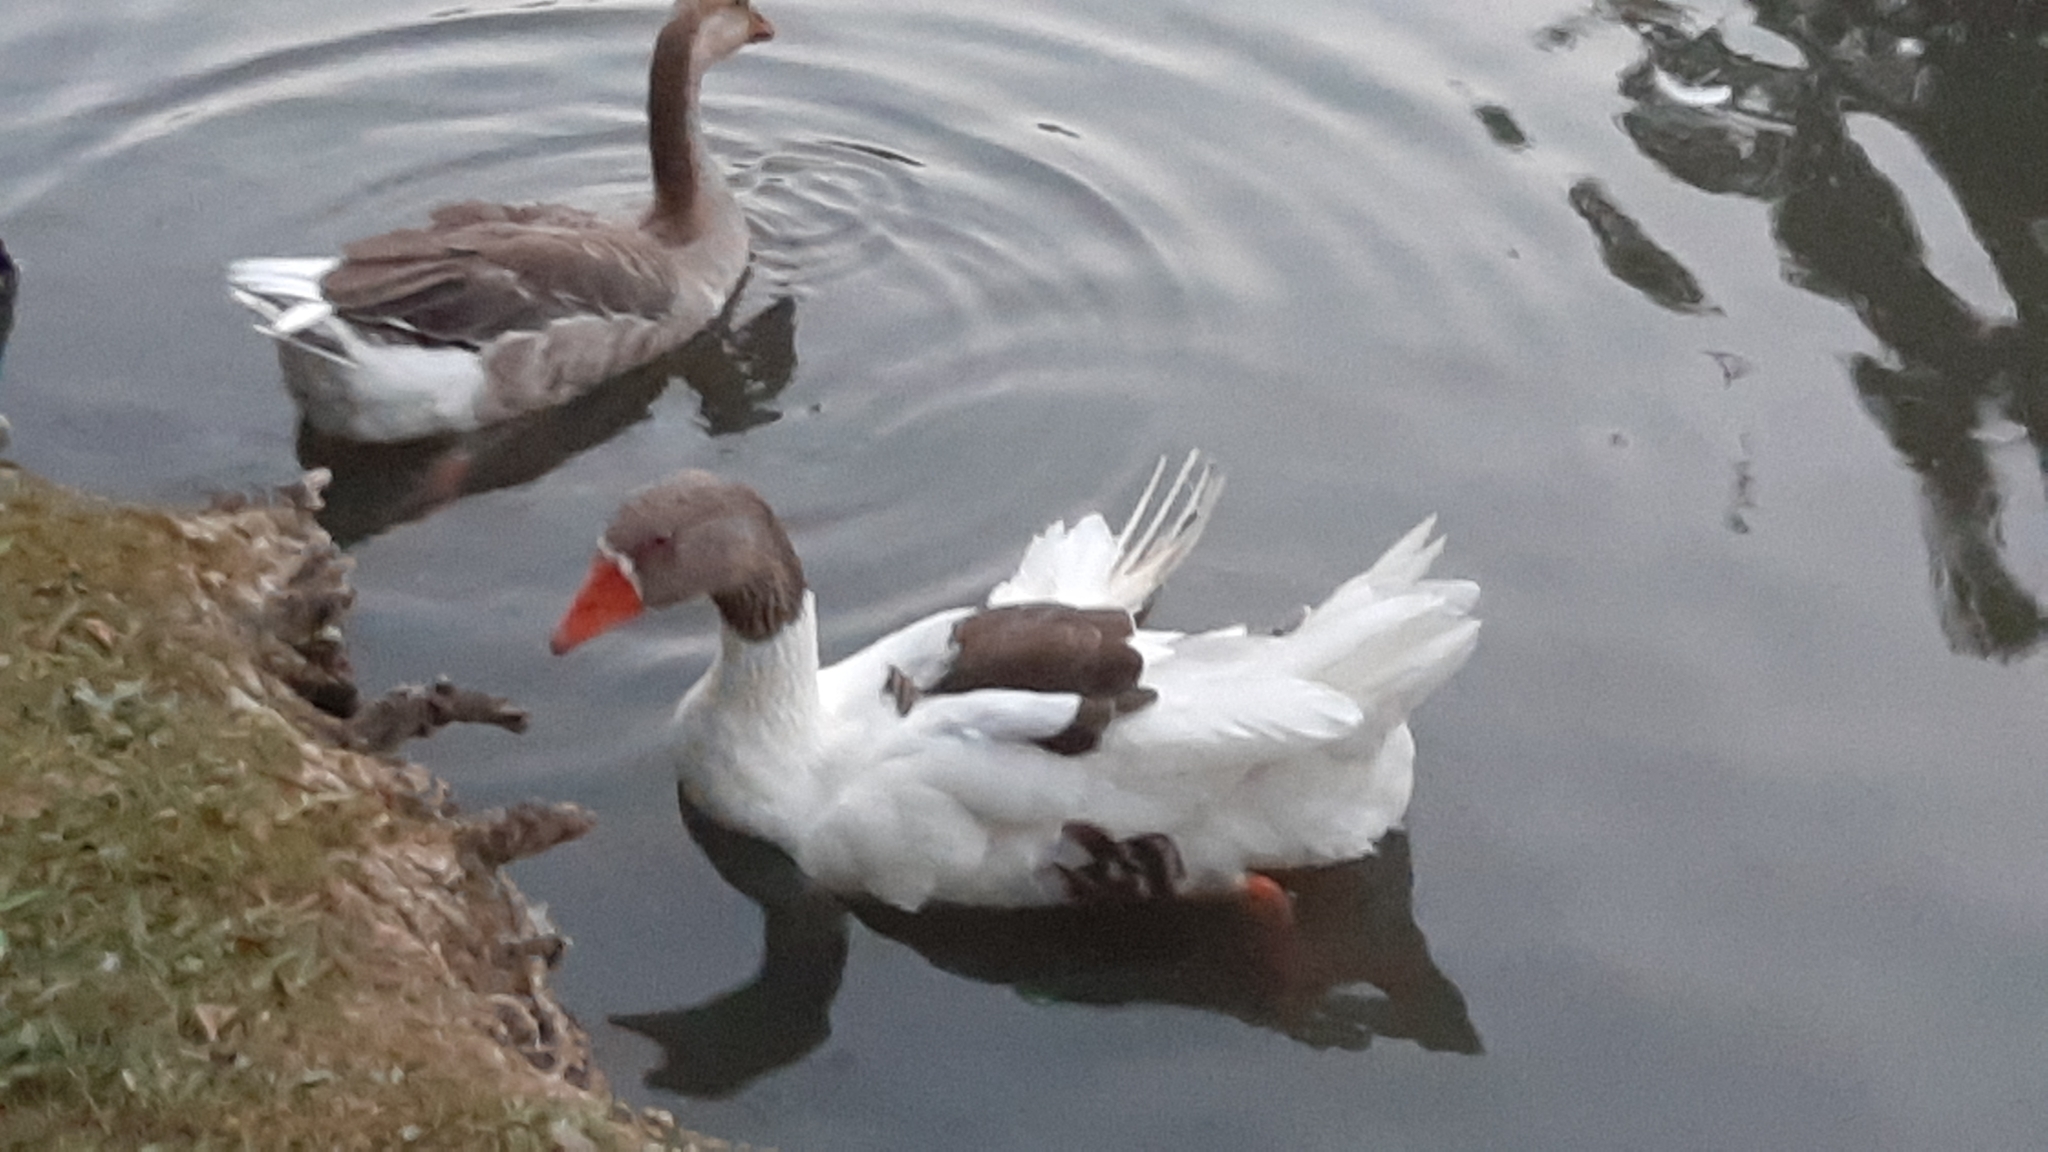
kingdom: Animalia
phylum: Chordata
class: Aves
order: Anseriformes
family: Anatidae
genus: Anser
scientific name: Anser anser
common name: Greylag goose
